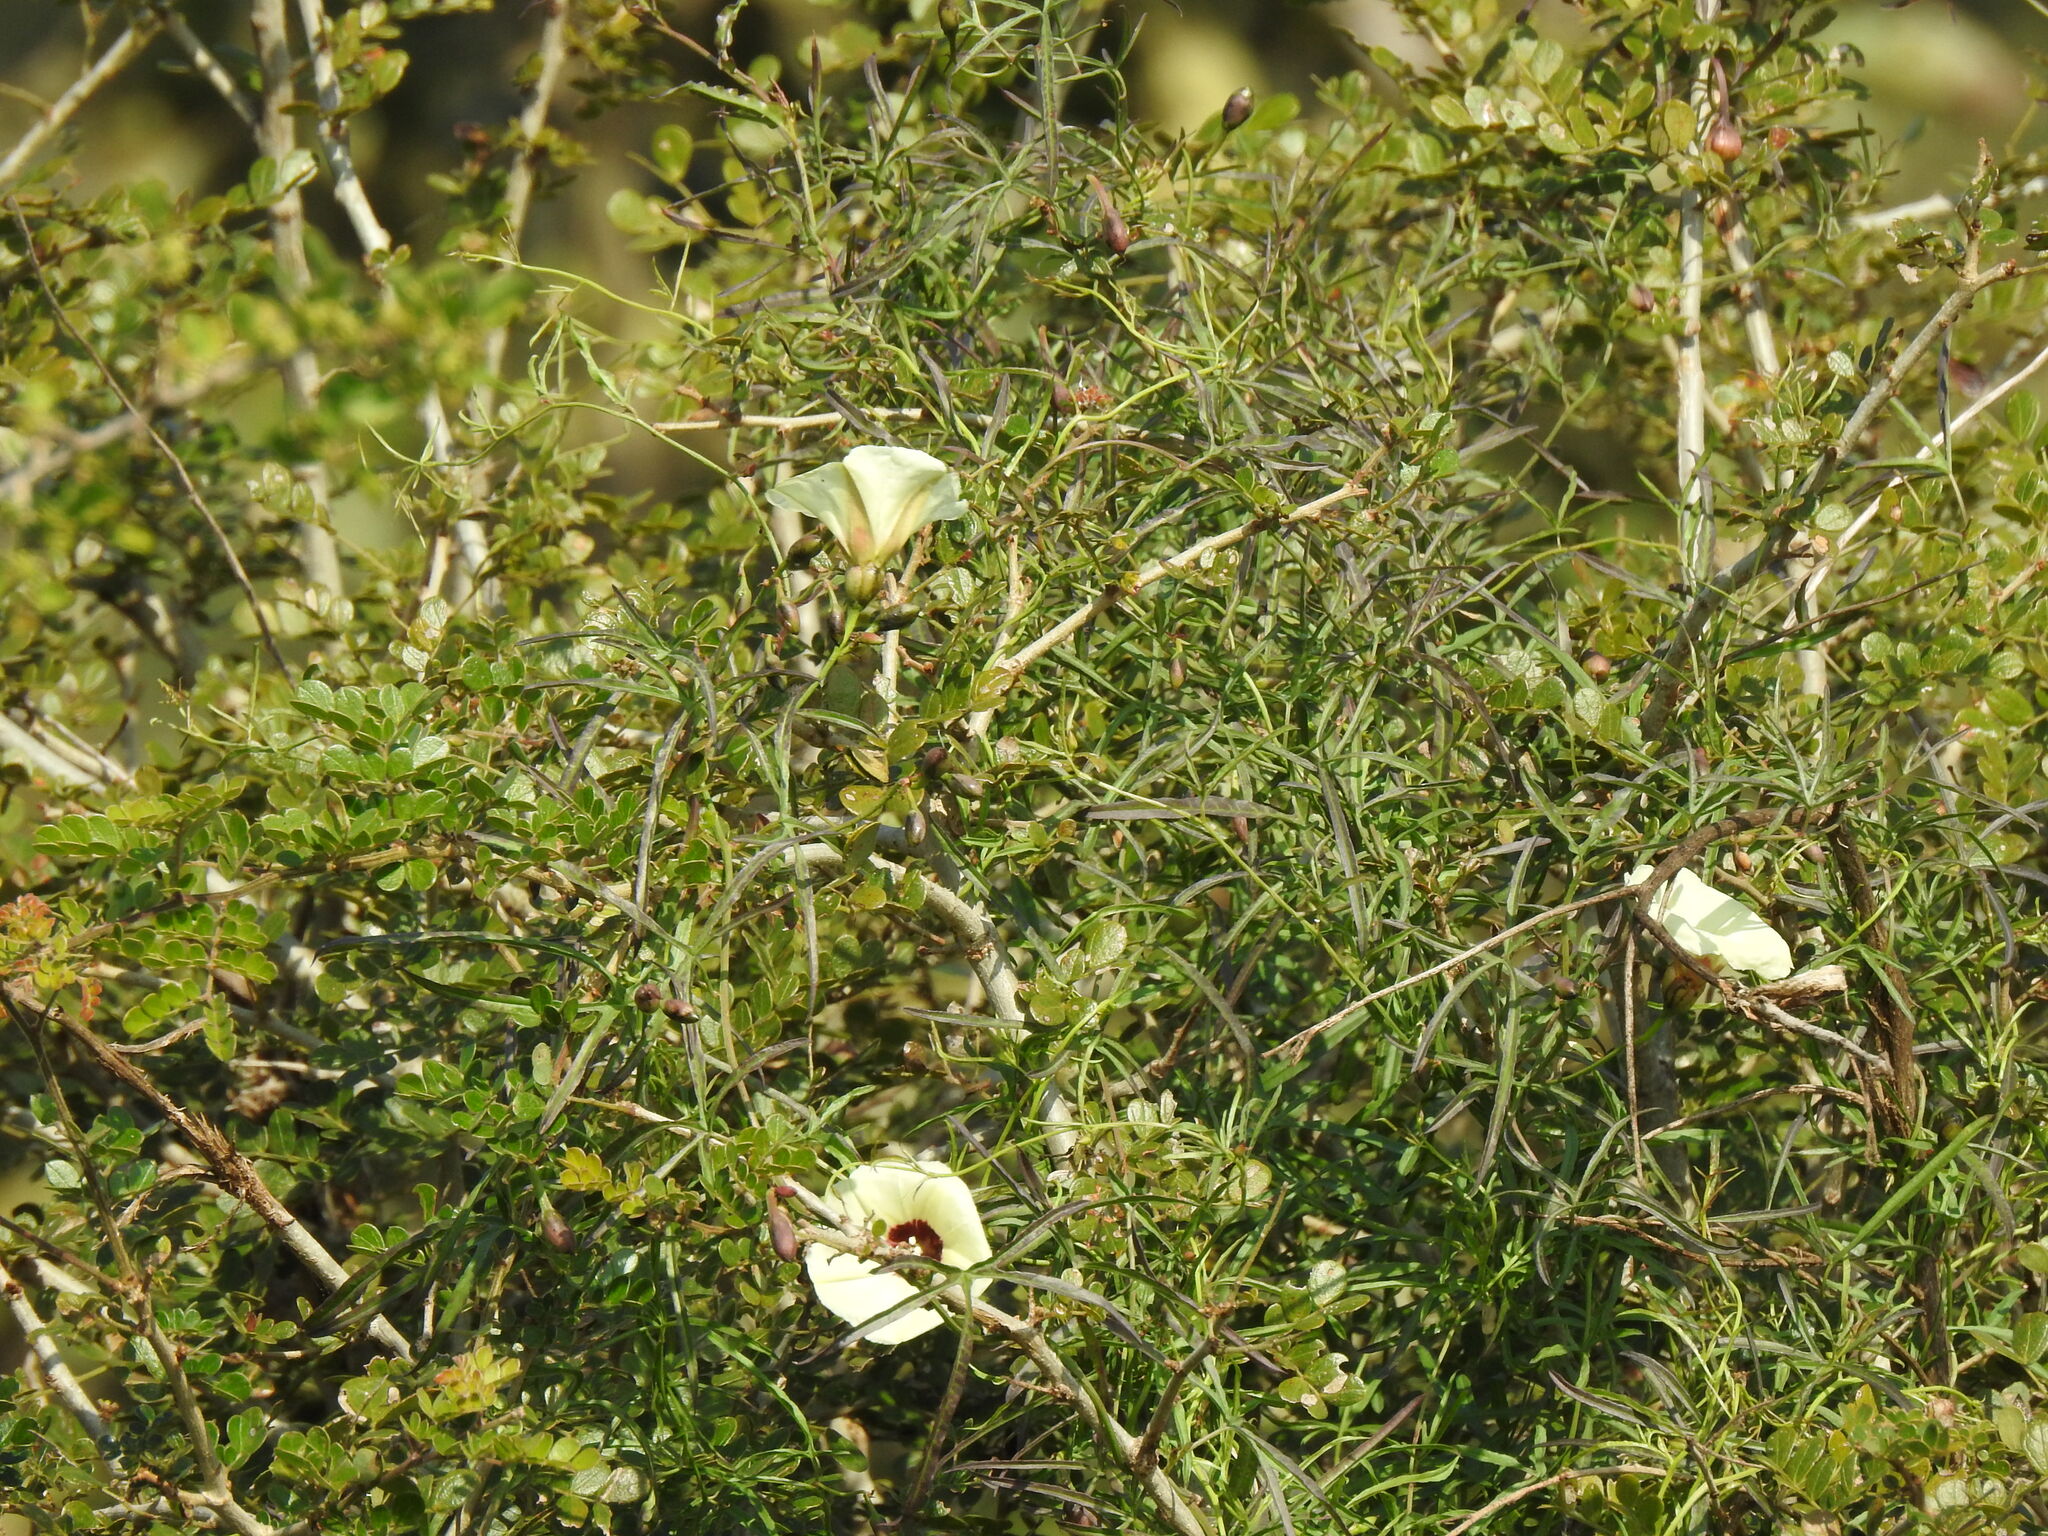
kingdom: Plantae
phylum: Tracheophyta
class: Magnoliopsida
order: Solanales
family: Convolvulaceae
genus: Merremia
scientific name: Merremia palmata
